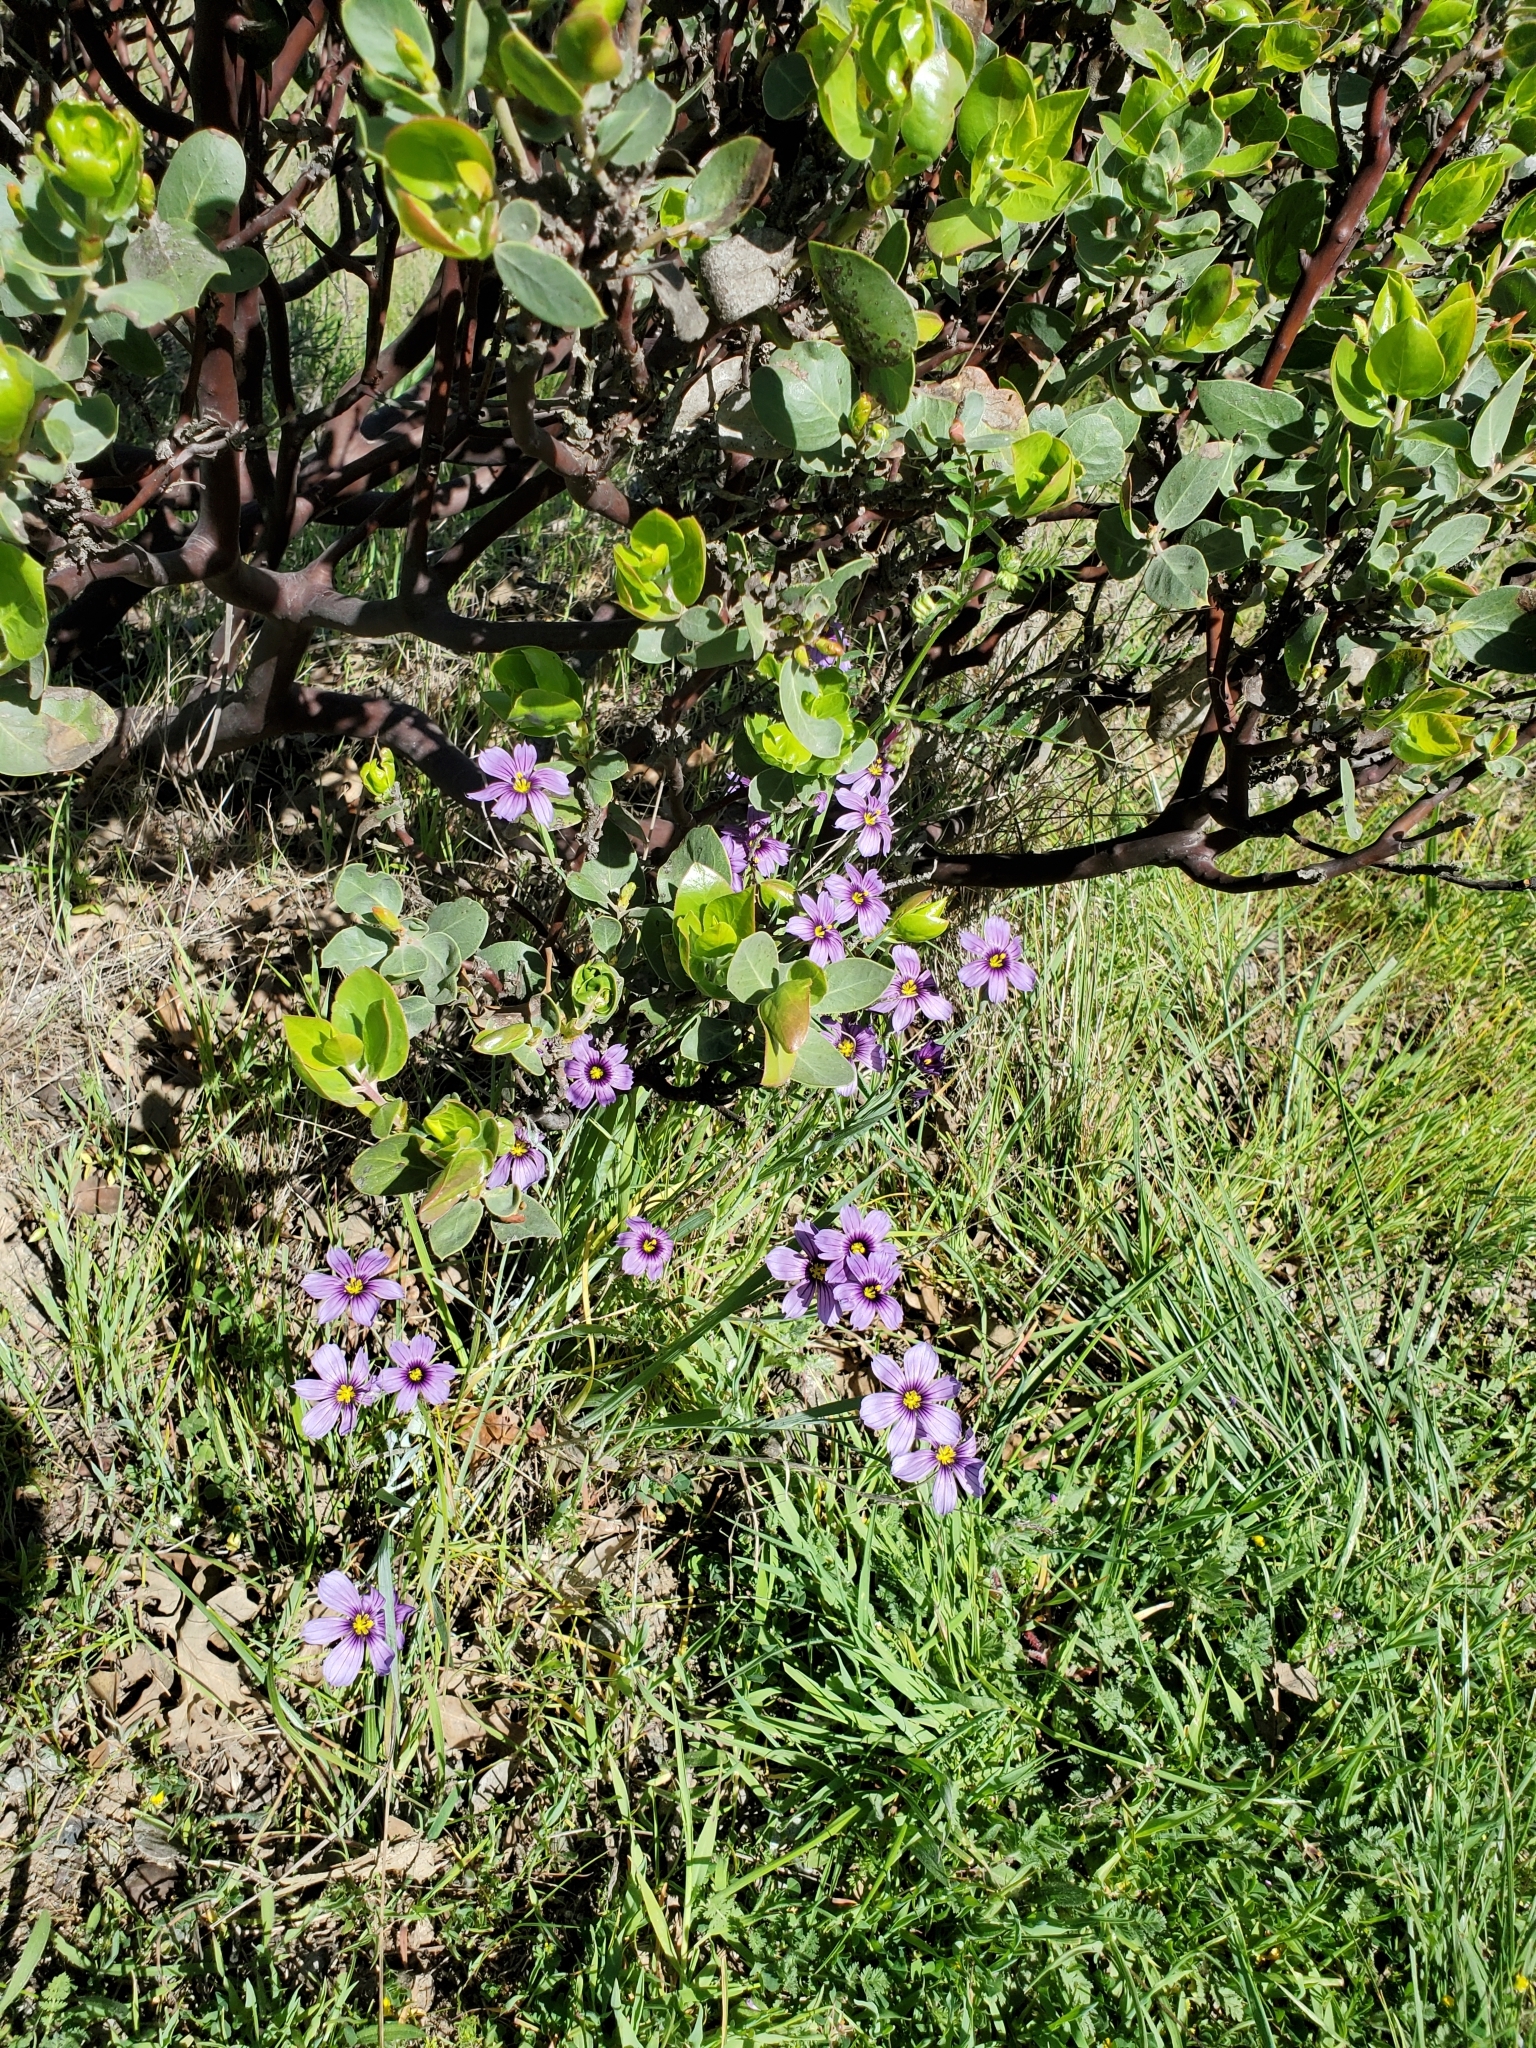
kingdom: Plantae
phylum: Tracheophyta
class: Liliopsida
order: Asparagales
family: Iridaceae
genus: Sisyrinchium
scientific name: Sisyrinchium bellum
